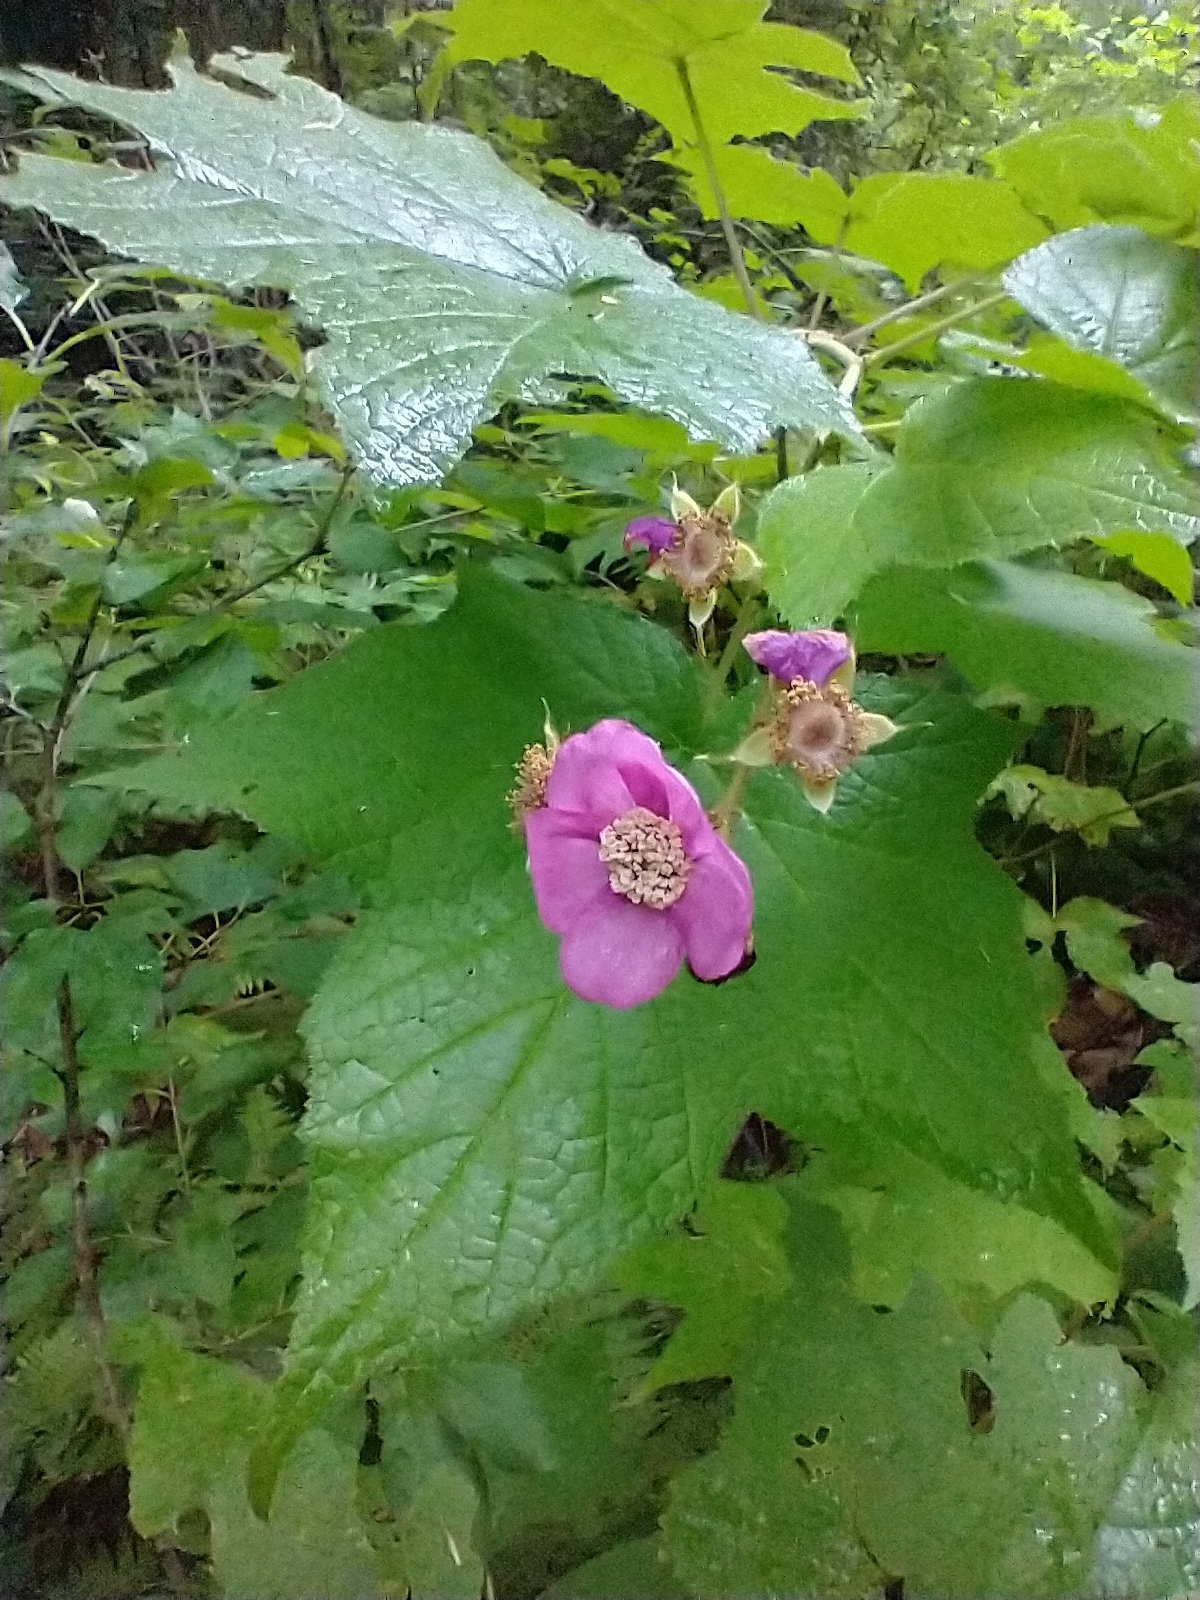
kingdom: Plantae
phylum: Tracheophyta
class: Magnoliopsida
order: Rosales
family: Rosaceae
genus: Rubus
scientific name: Rubus odoratus
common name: Purple-flowered raspberry
